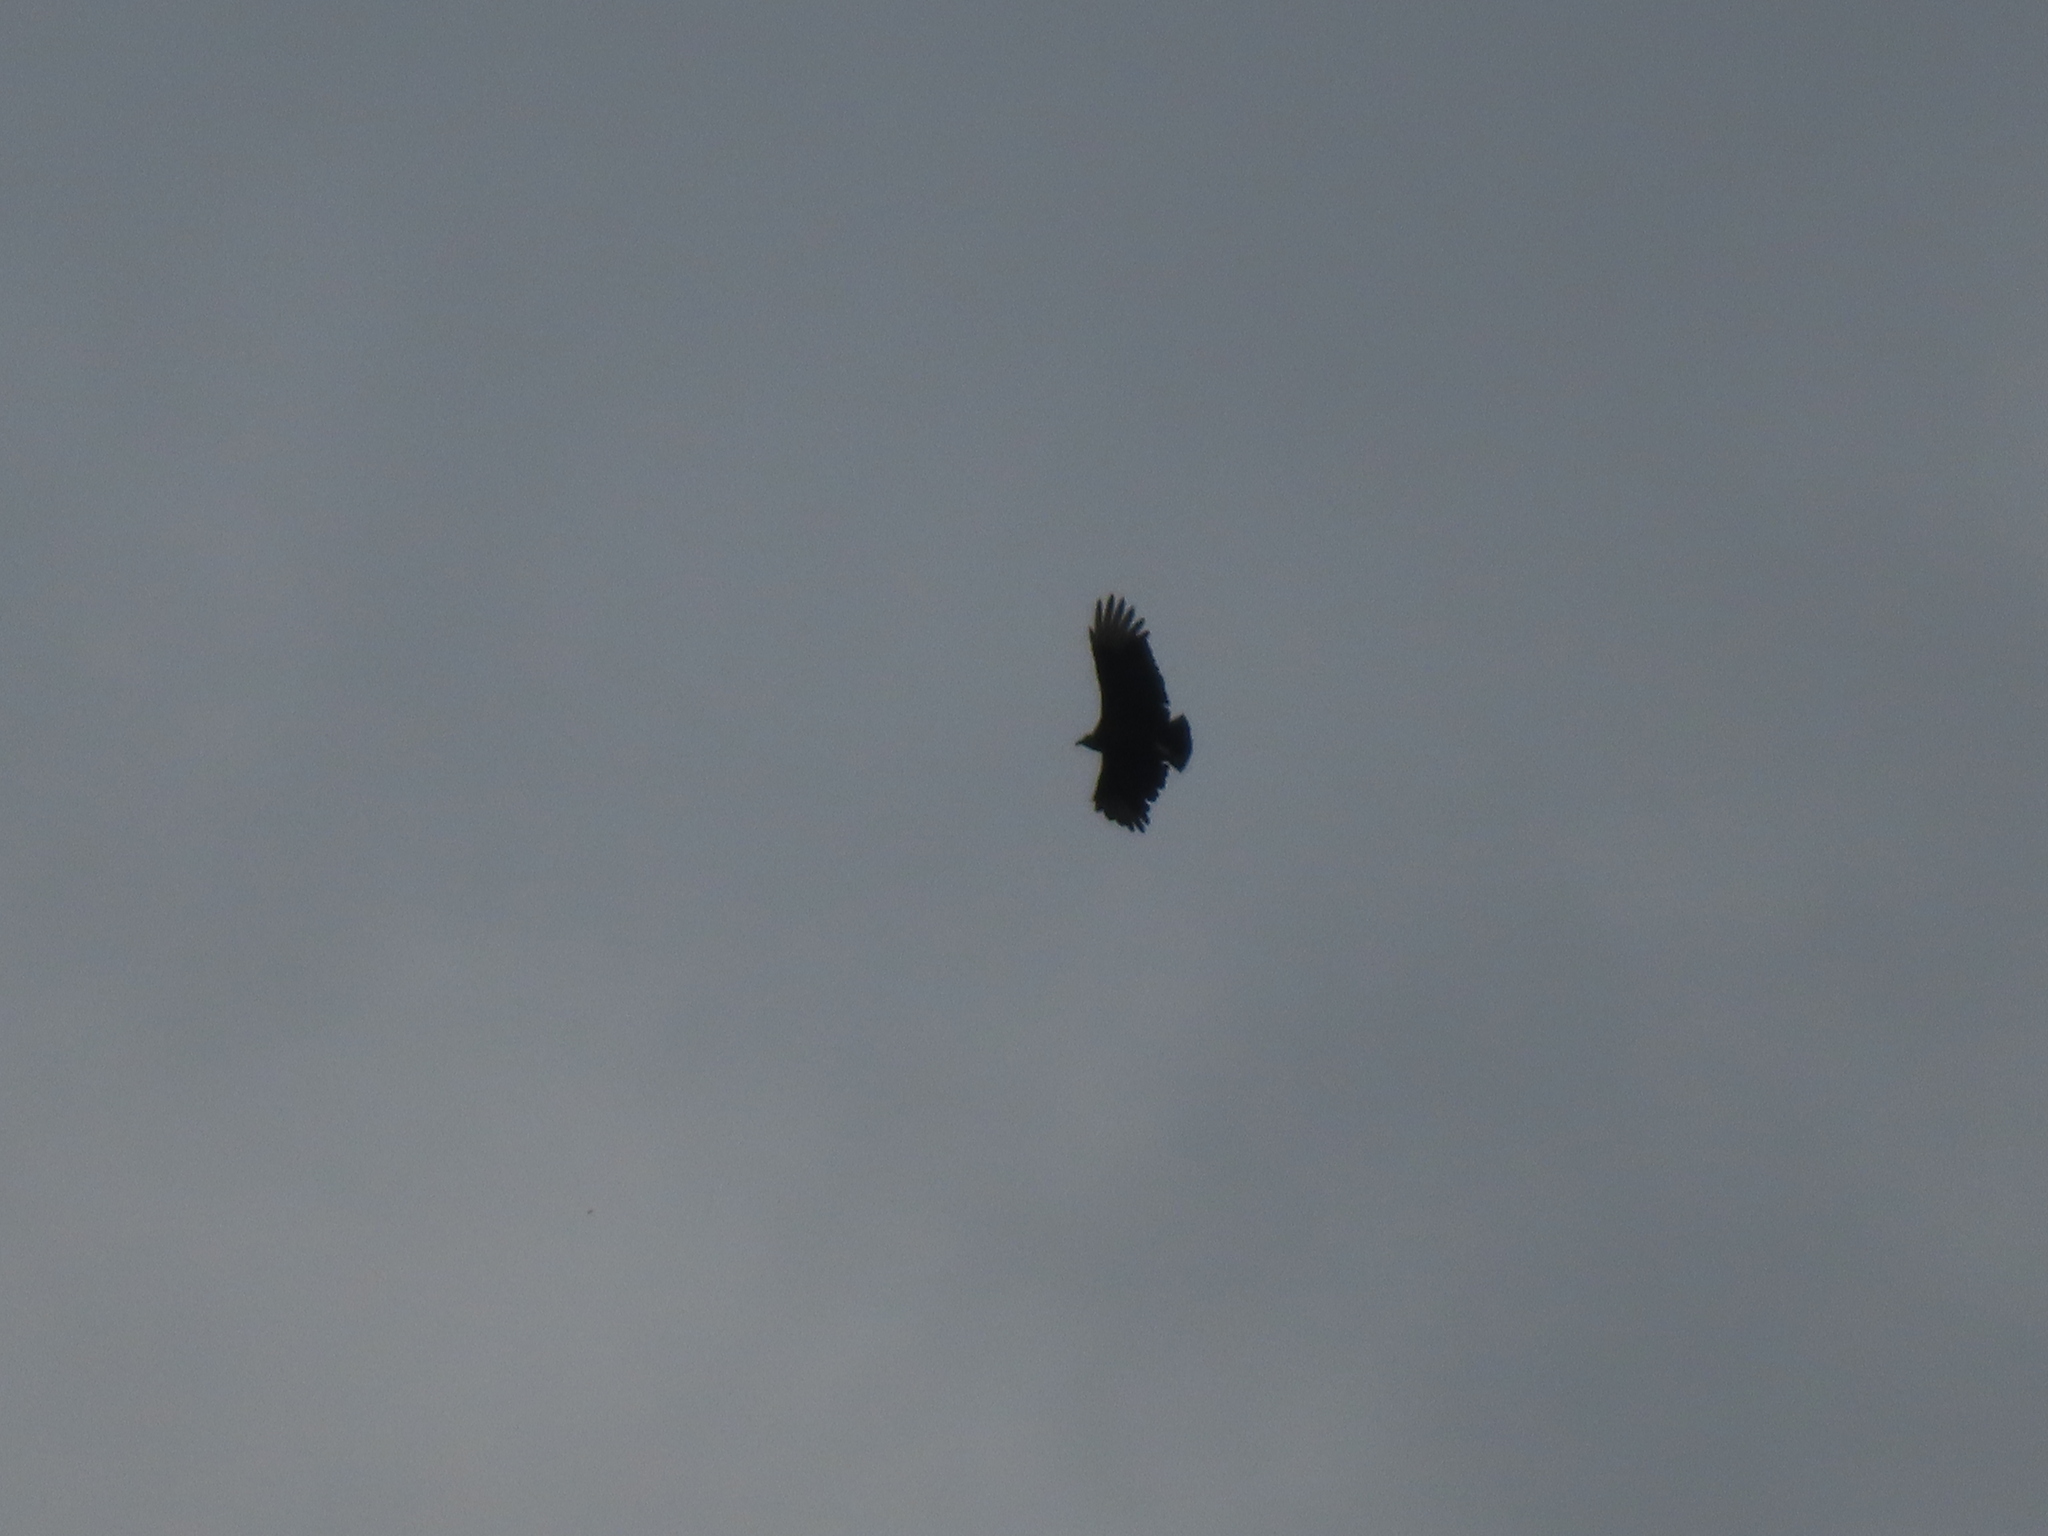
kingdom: Animalia
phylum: Chordata
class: Aves
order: Accipitriformes
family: Cathartidae
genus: Coragyps
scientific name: Coragyps atratus
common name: Black vulture
